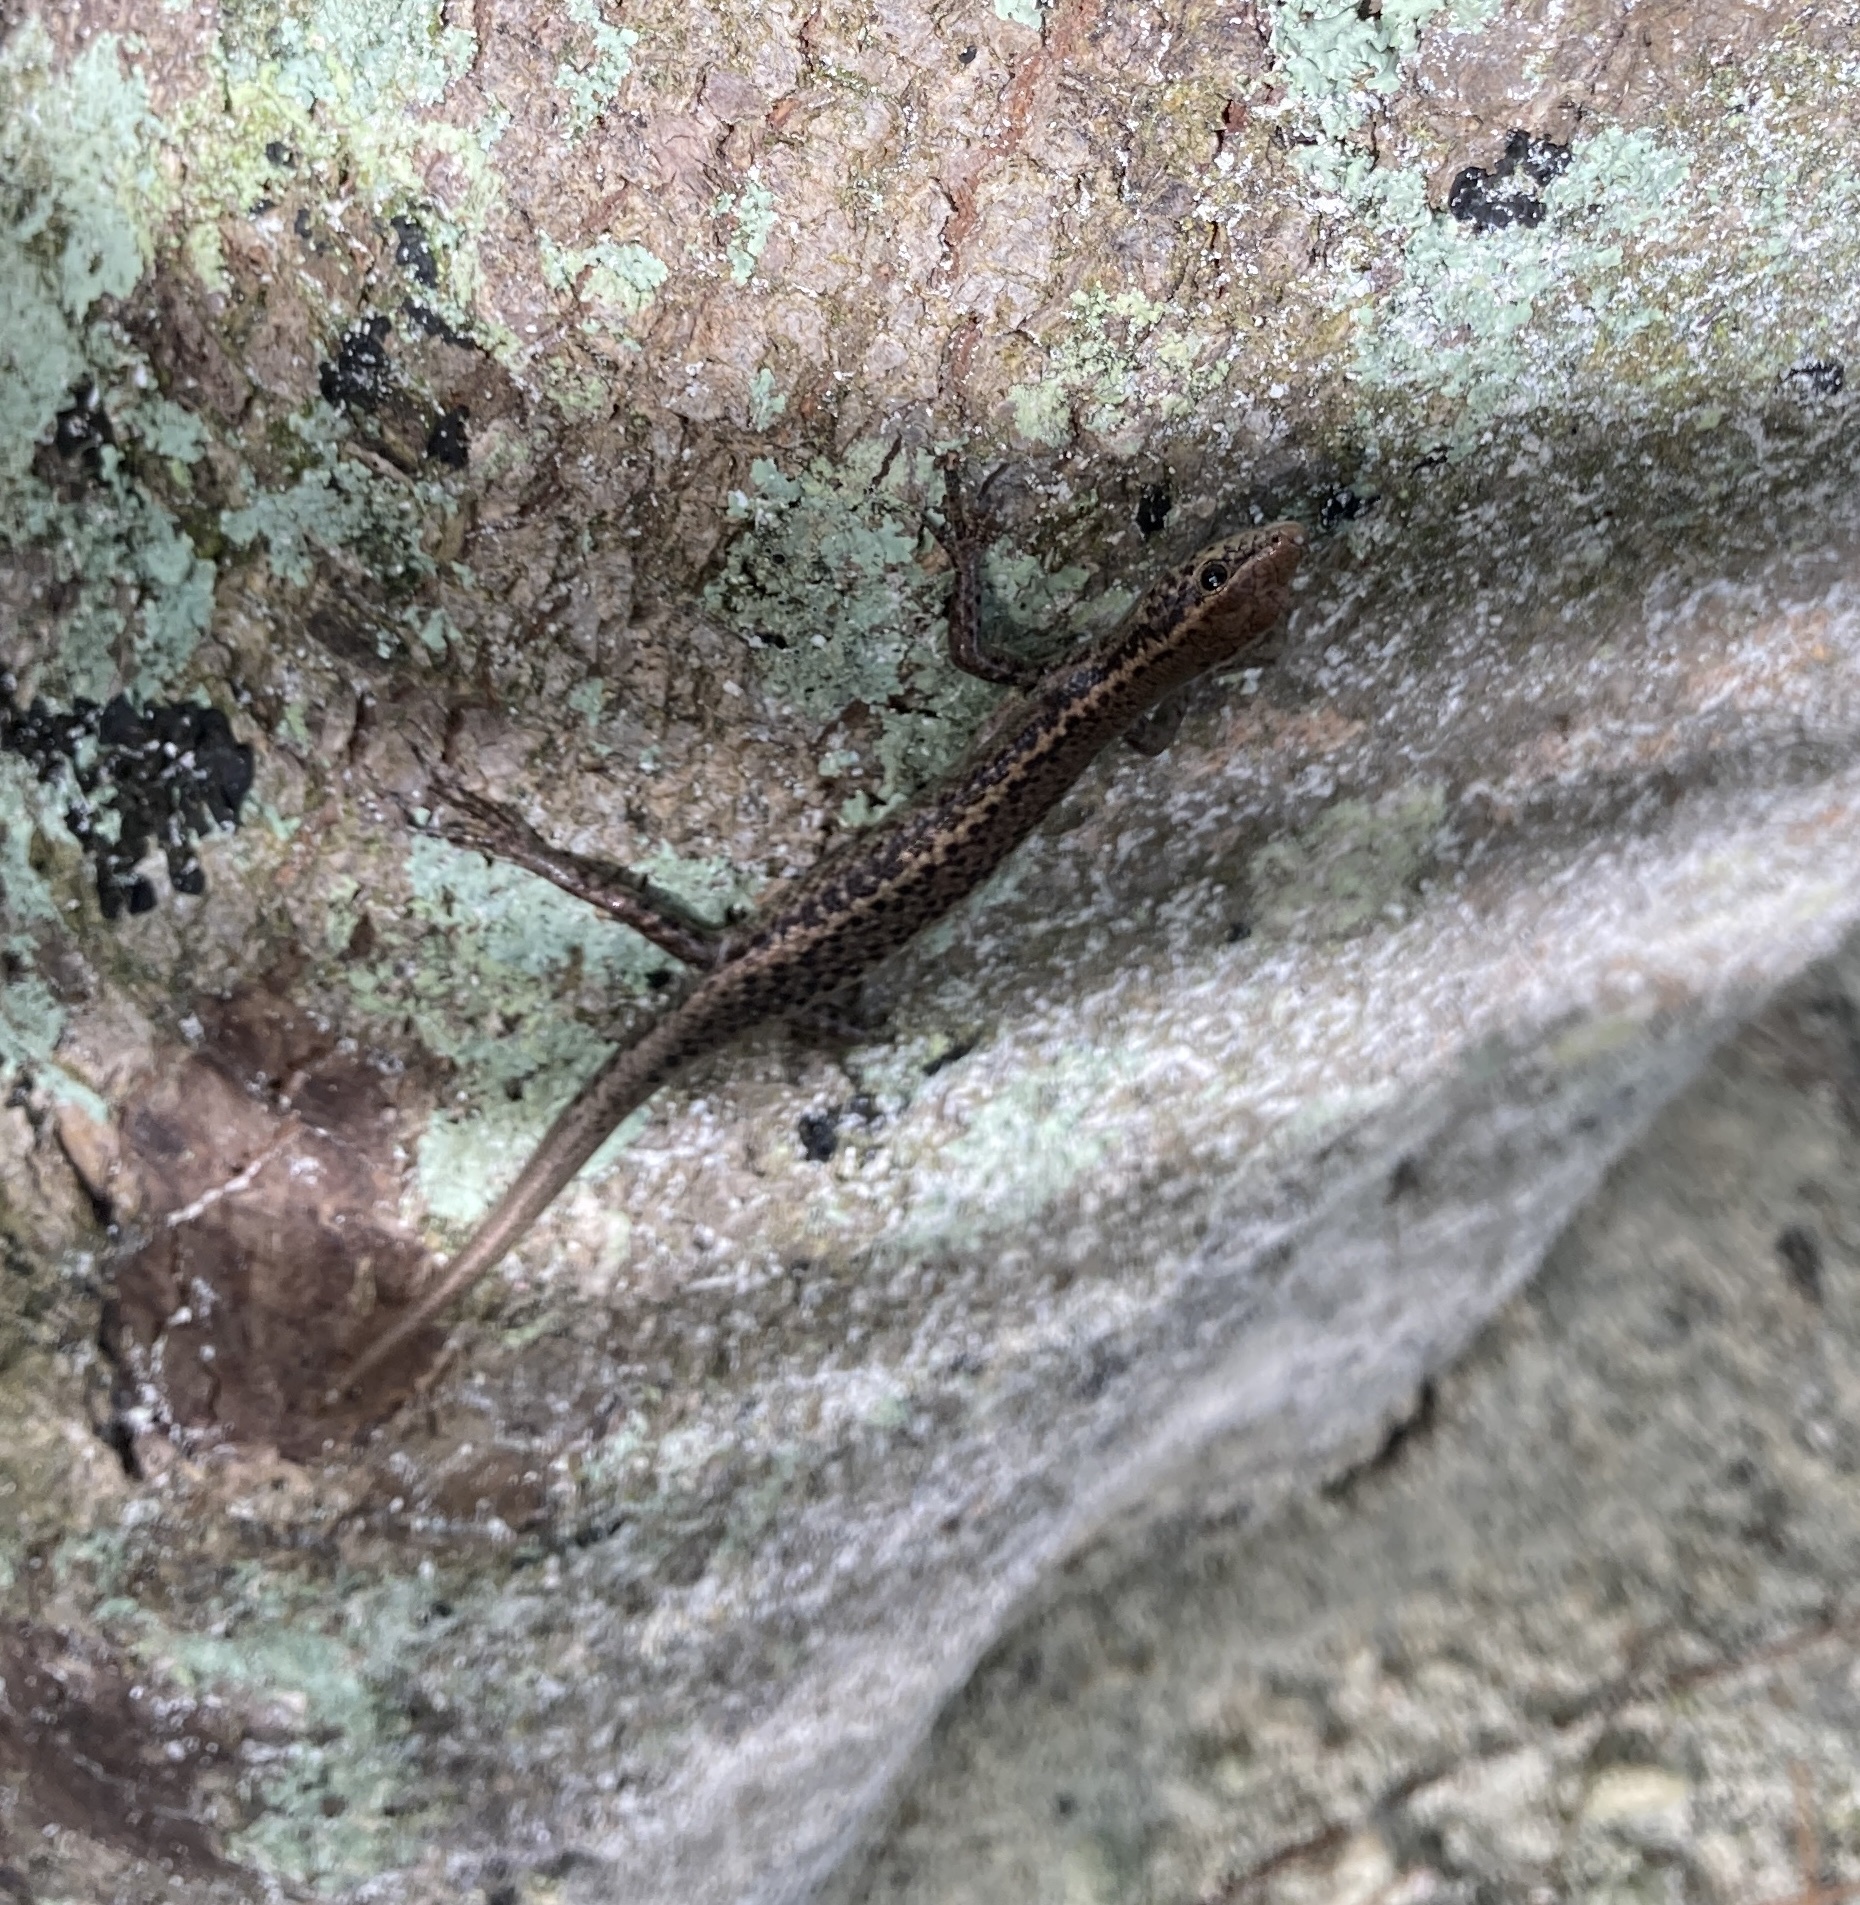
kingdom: Animalia
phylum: Chordata
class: Squamata
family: Scincidae
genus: Cryptoblepharus
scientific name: Cryptoblepharus poecilopleurus
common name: Mottled snake-eyed skink
